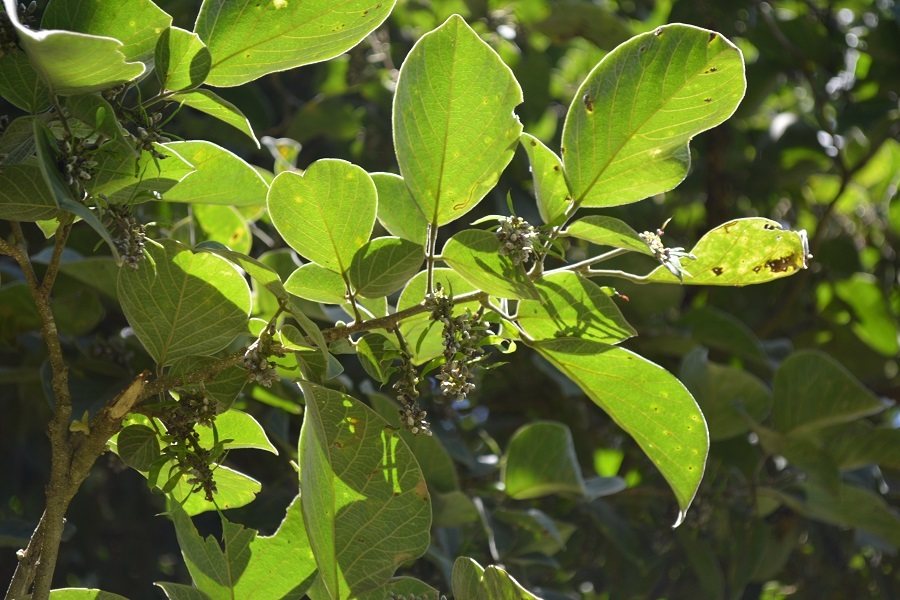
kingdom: Plantae
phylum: Tracheophyta
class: Magnoliopsida
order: Fabales
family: Fabaceae
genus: Lonchocarpus
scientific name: Lonchocarpus phaseolifolius
